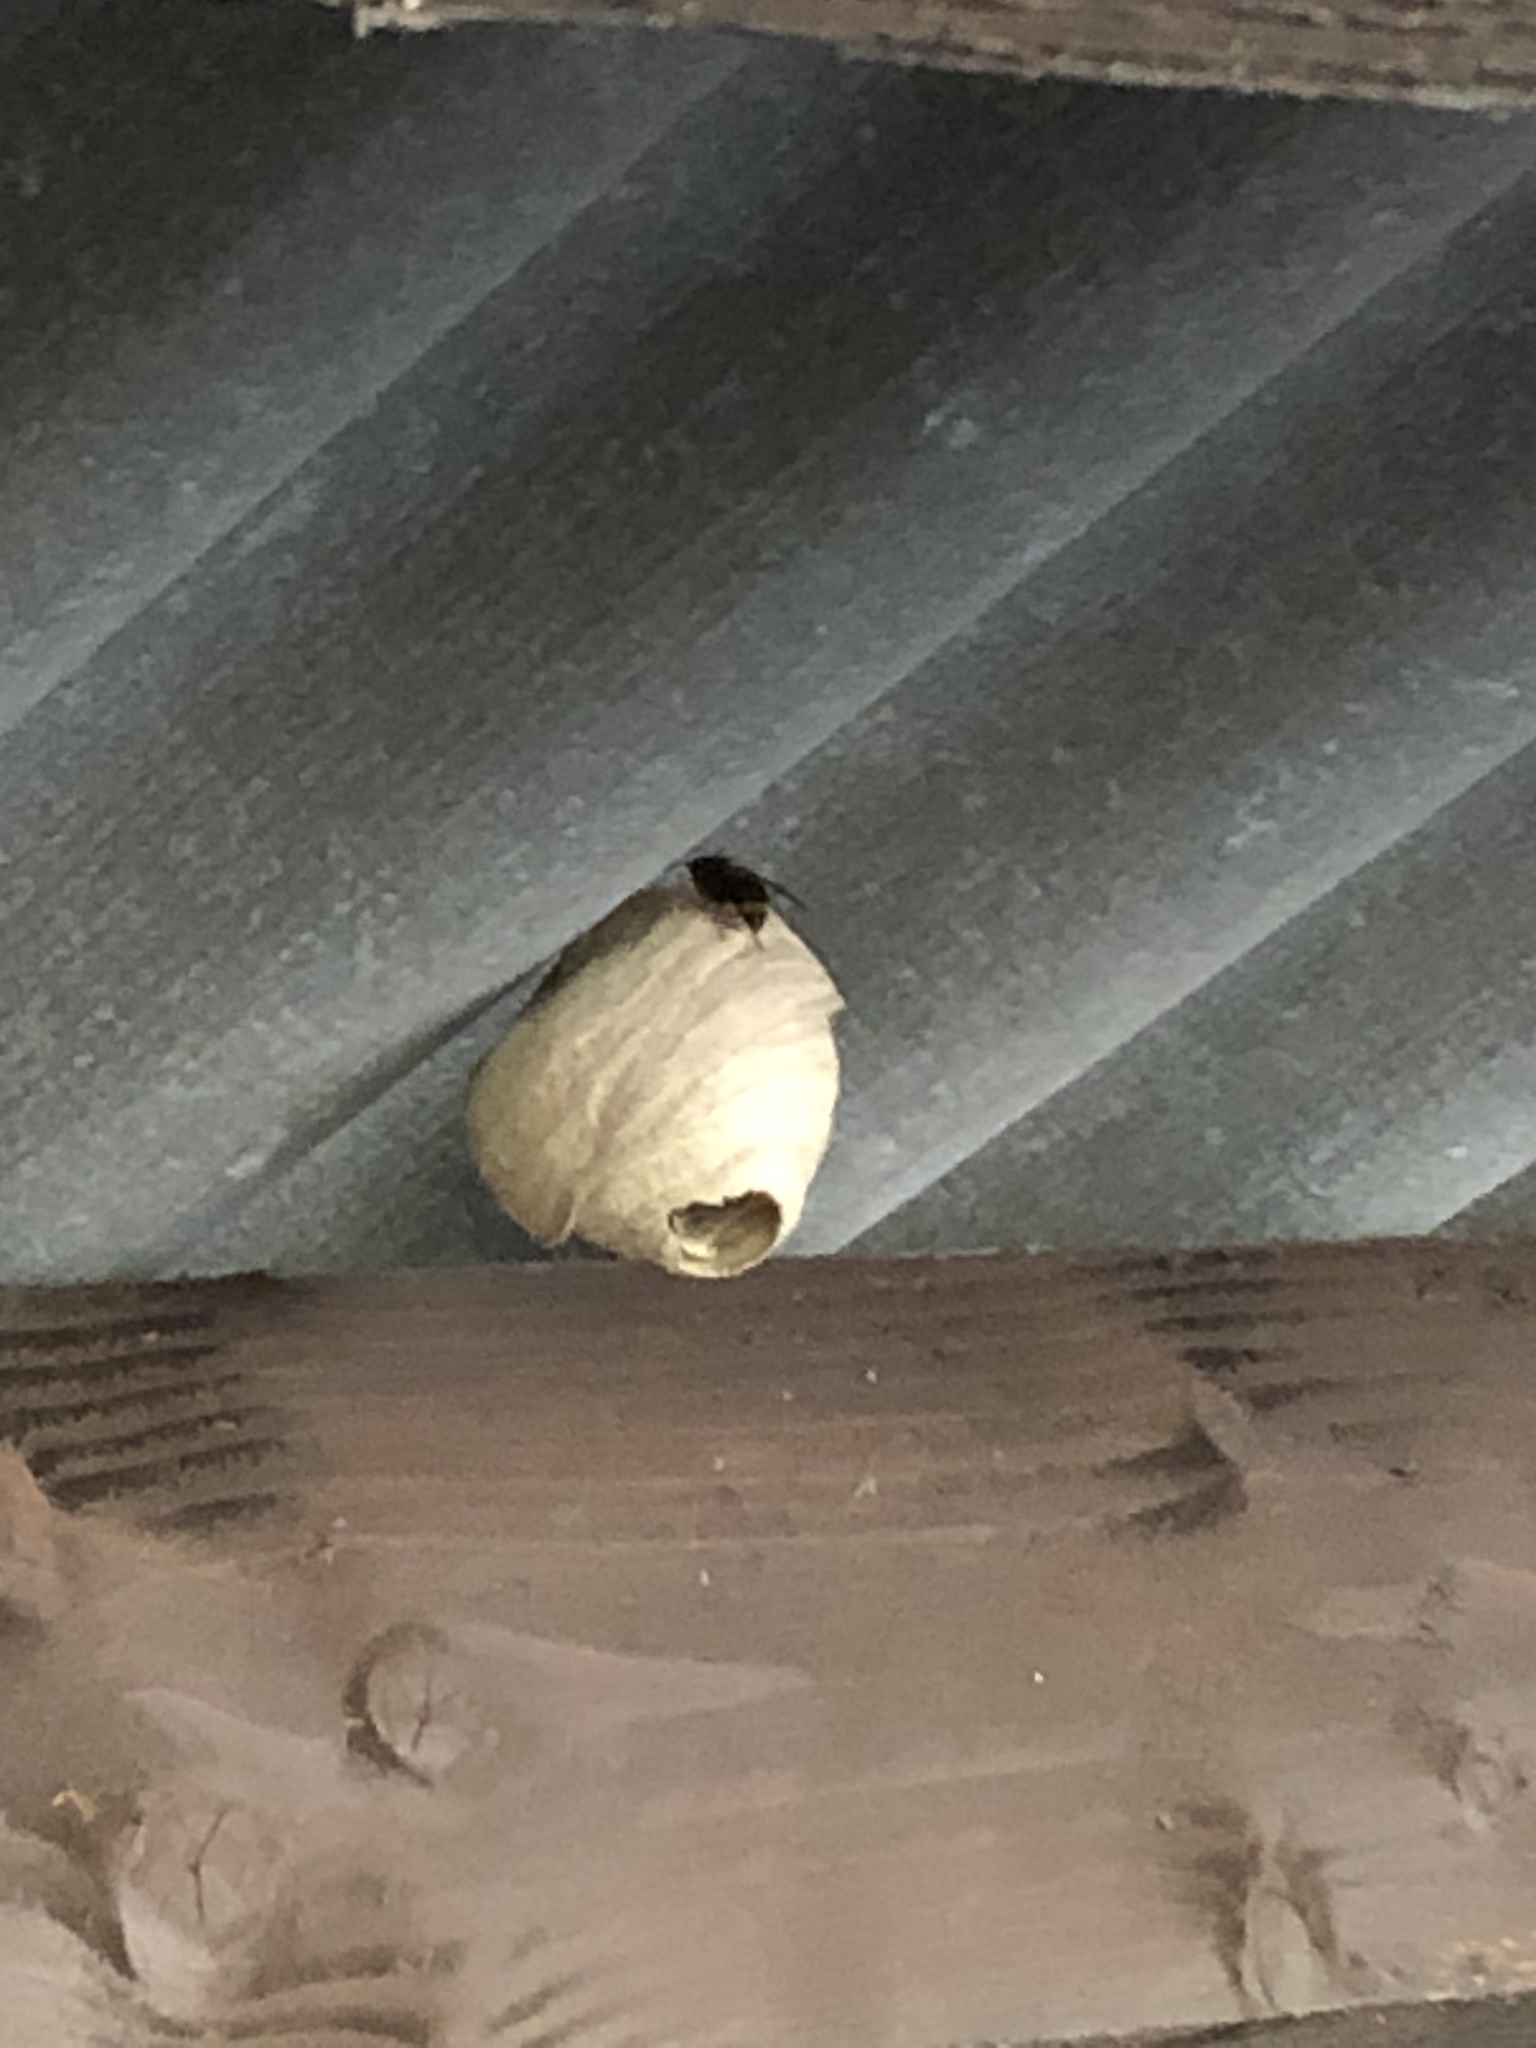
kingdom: Animalia
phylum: Arthropoda
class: Insecta
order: Hymenoptera
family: Vespidae
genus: Vespa
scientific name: Vespa velutina
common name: Asian hornet
